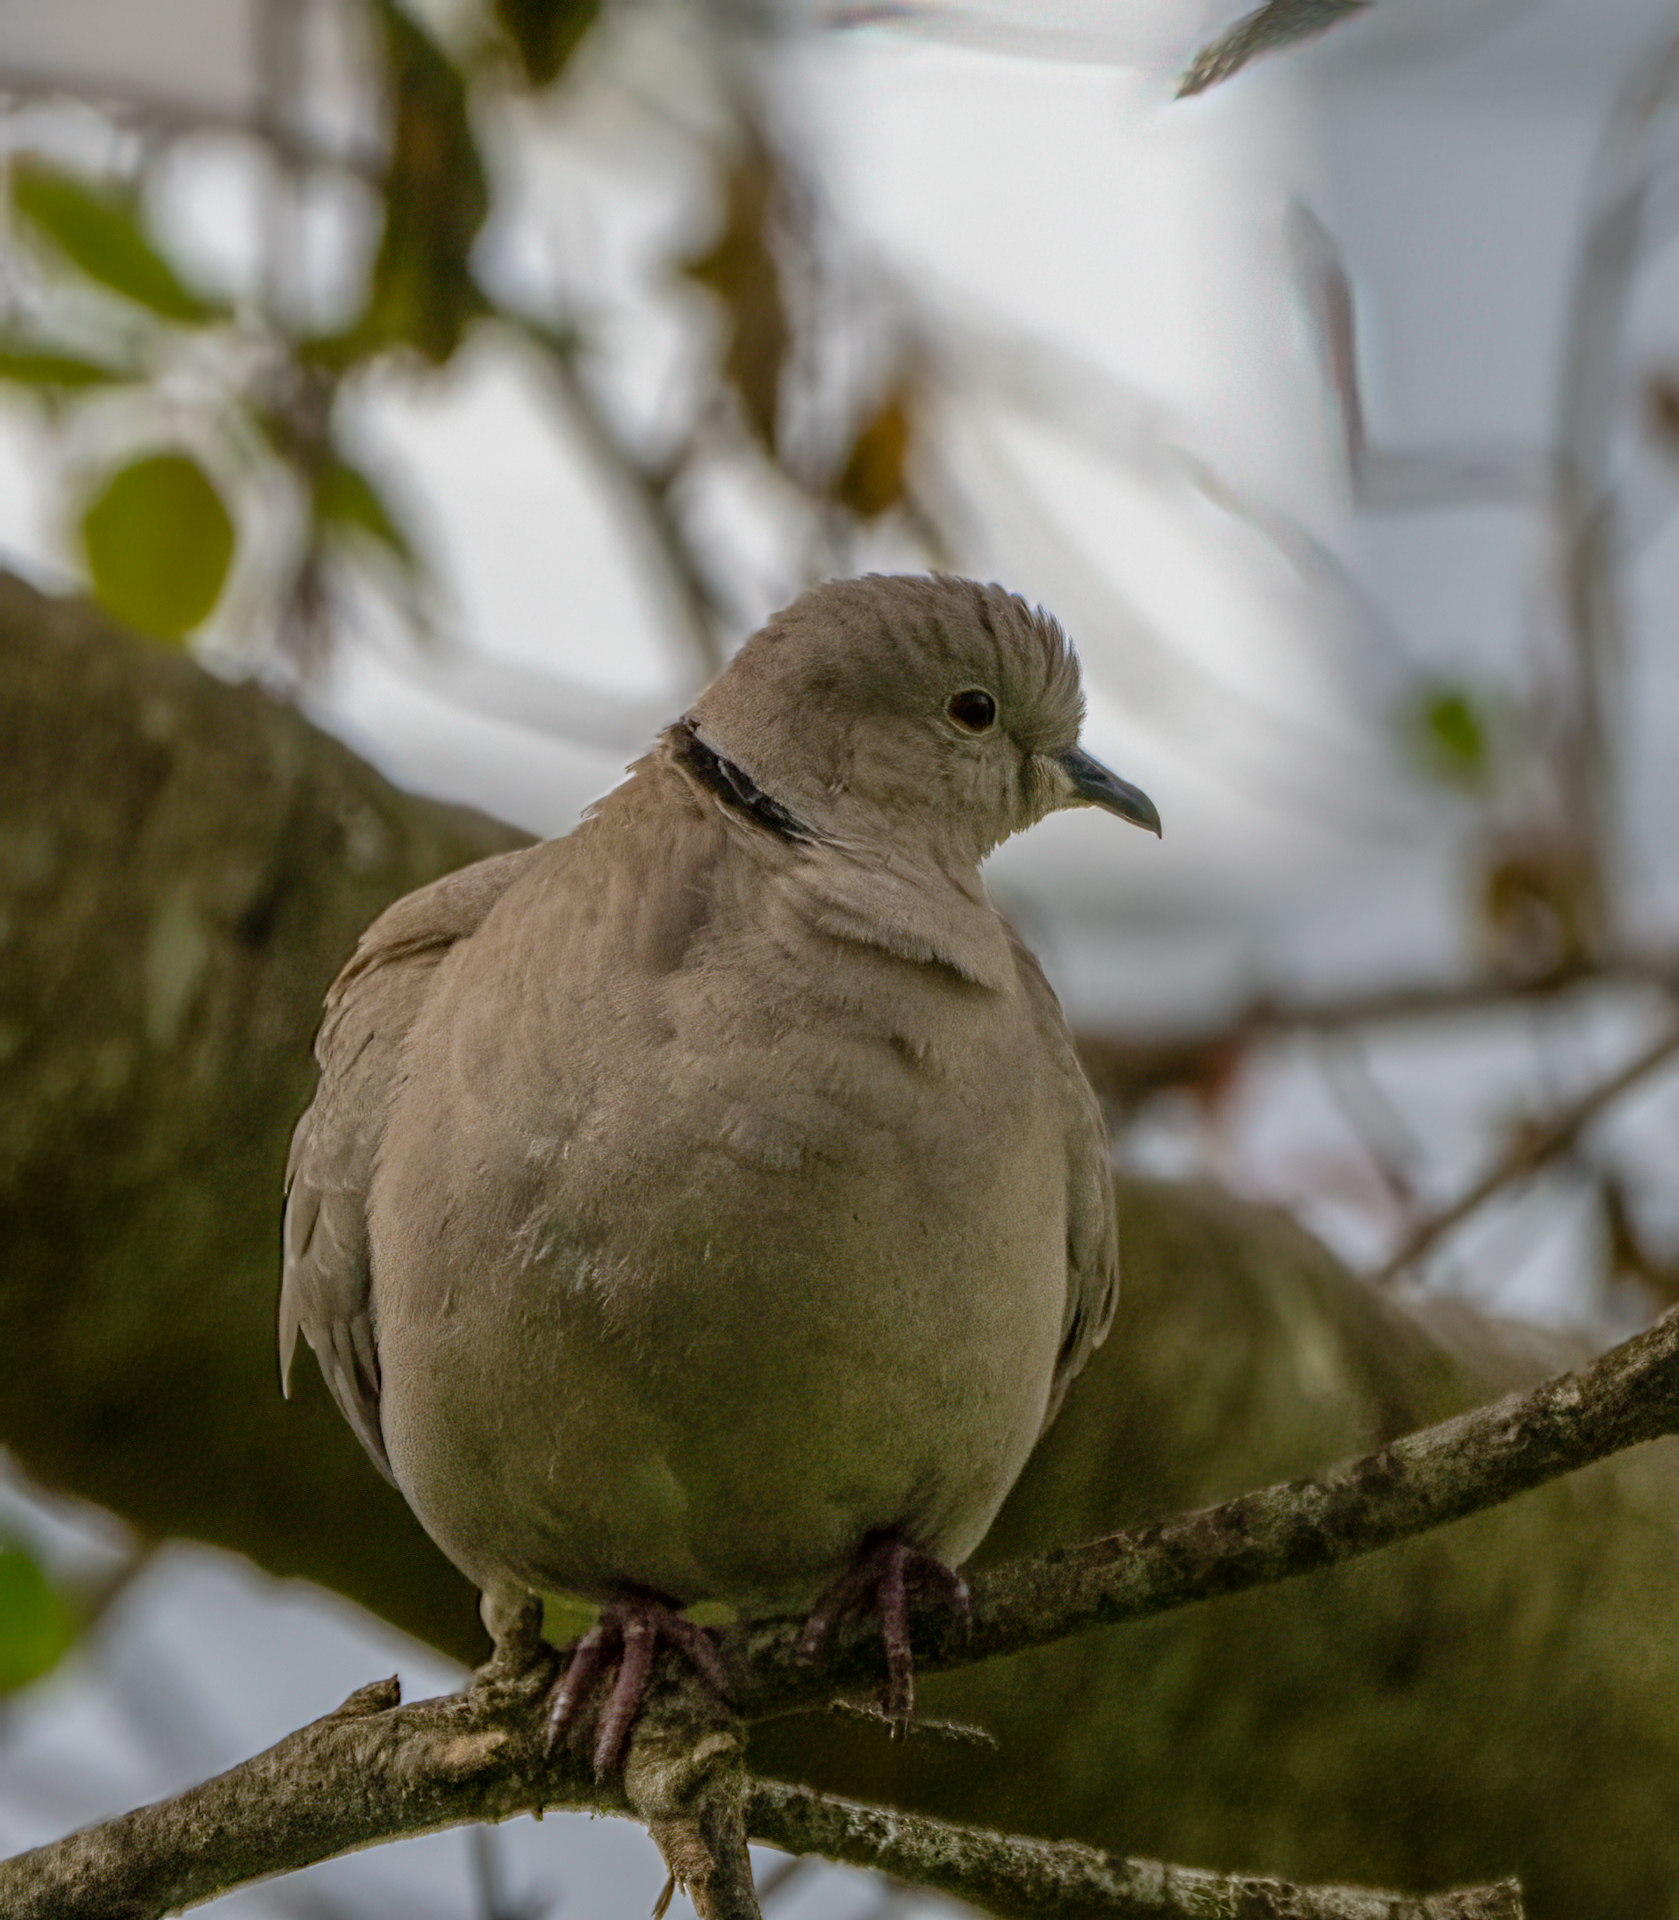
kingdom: Animalia
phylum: Chordata
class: Aves
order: Columbiformes
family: Columbidae
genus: Streptopelia
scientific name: Streptopelia decaocto
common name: Eurasian collared dove
